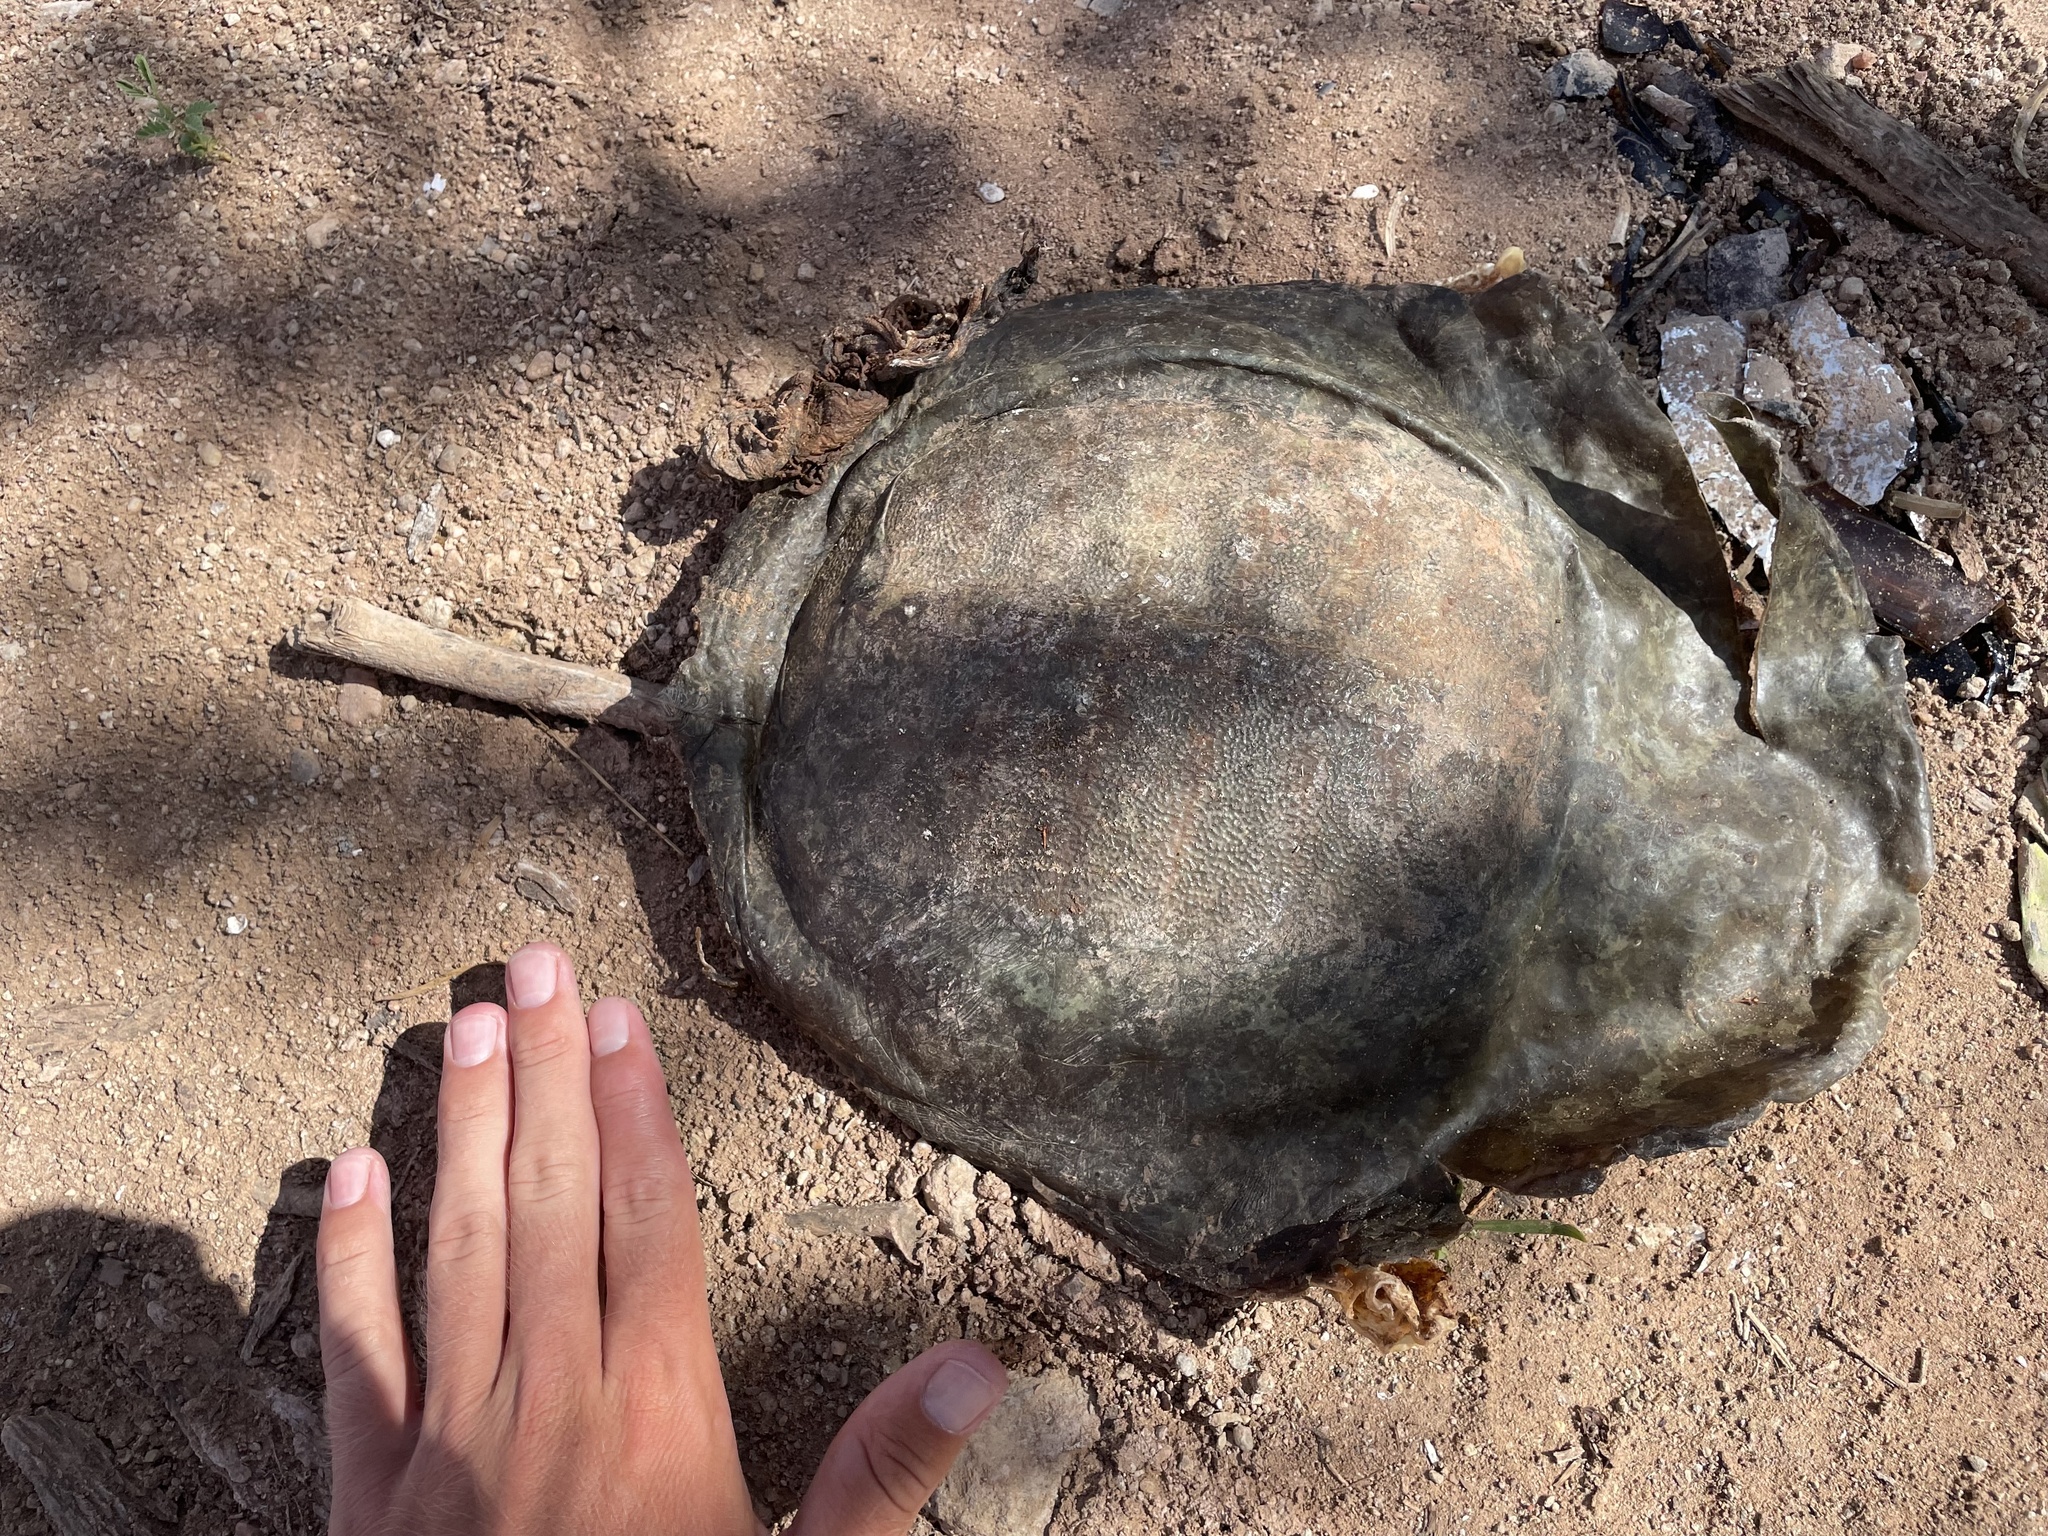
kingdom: Animalia
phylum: Chordata
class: Testudines
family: Trionychidae
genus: Apalone
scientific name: Apalone spinifera
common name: Spiny softshell turtle
